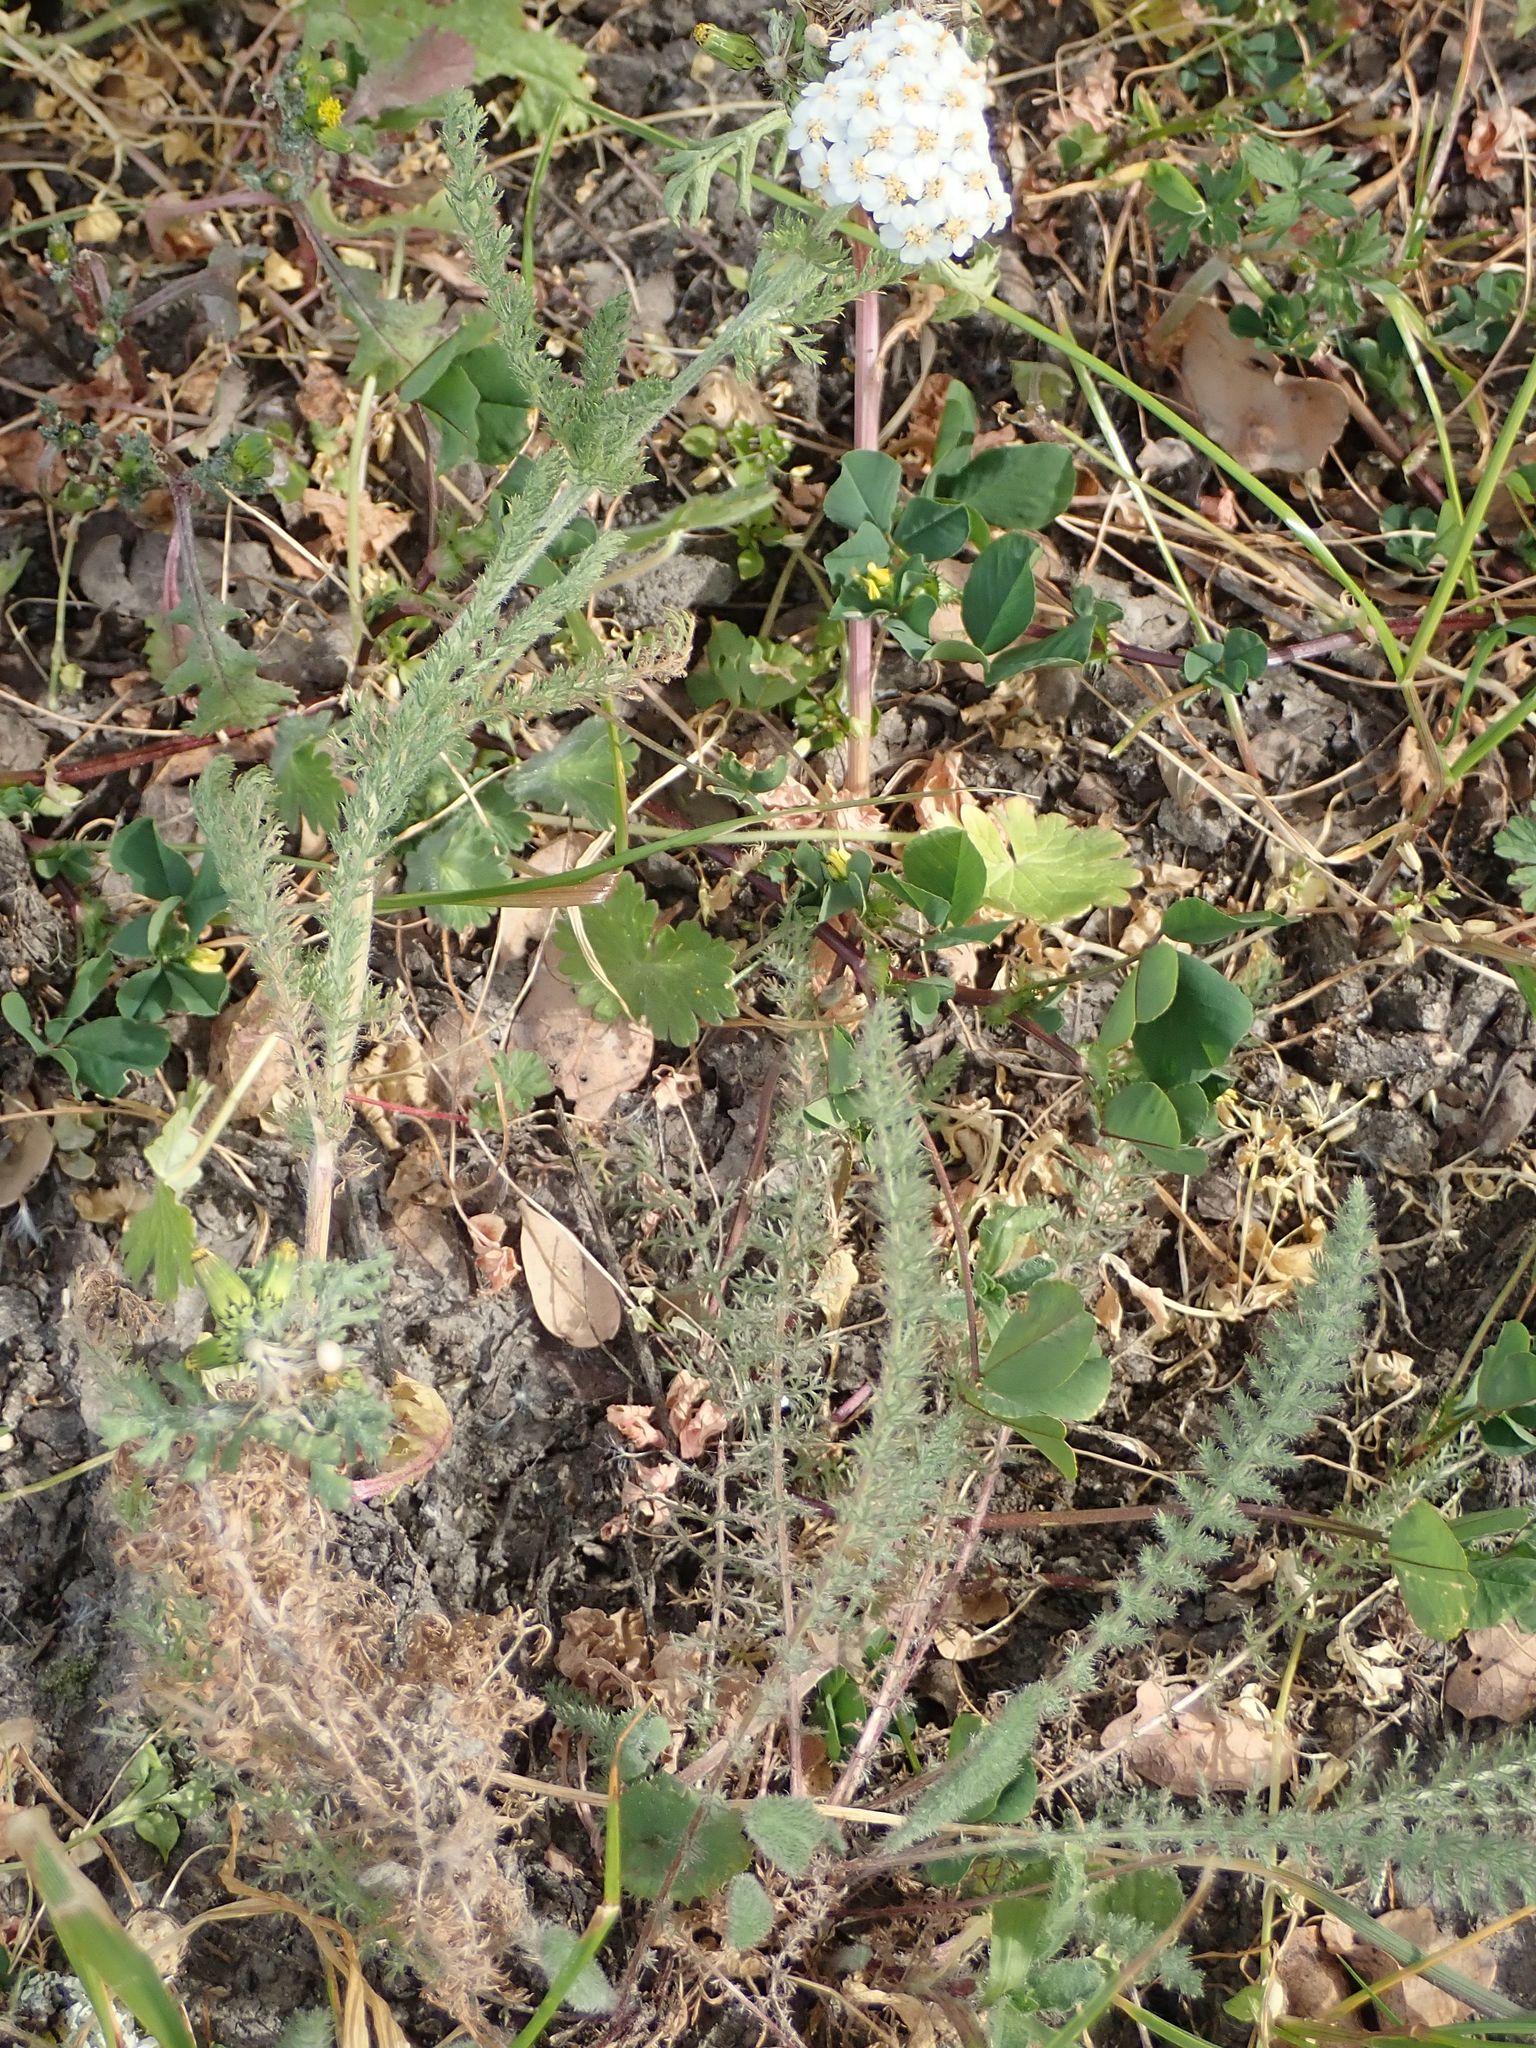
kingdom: Plantae
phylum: Tracheophyta
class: Magnoliopsida
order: Asterales
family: Asteraceae
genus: Achillea
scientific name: Achillea millefolium
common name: Yarrow
